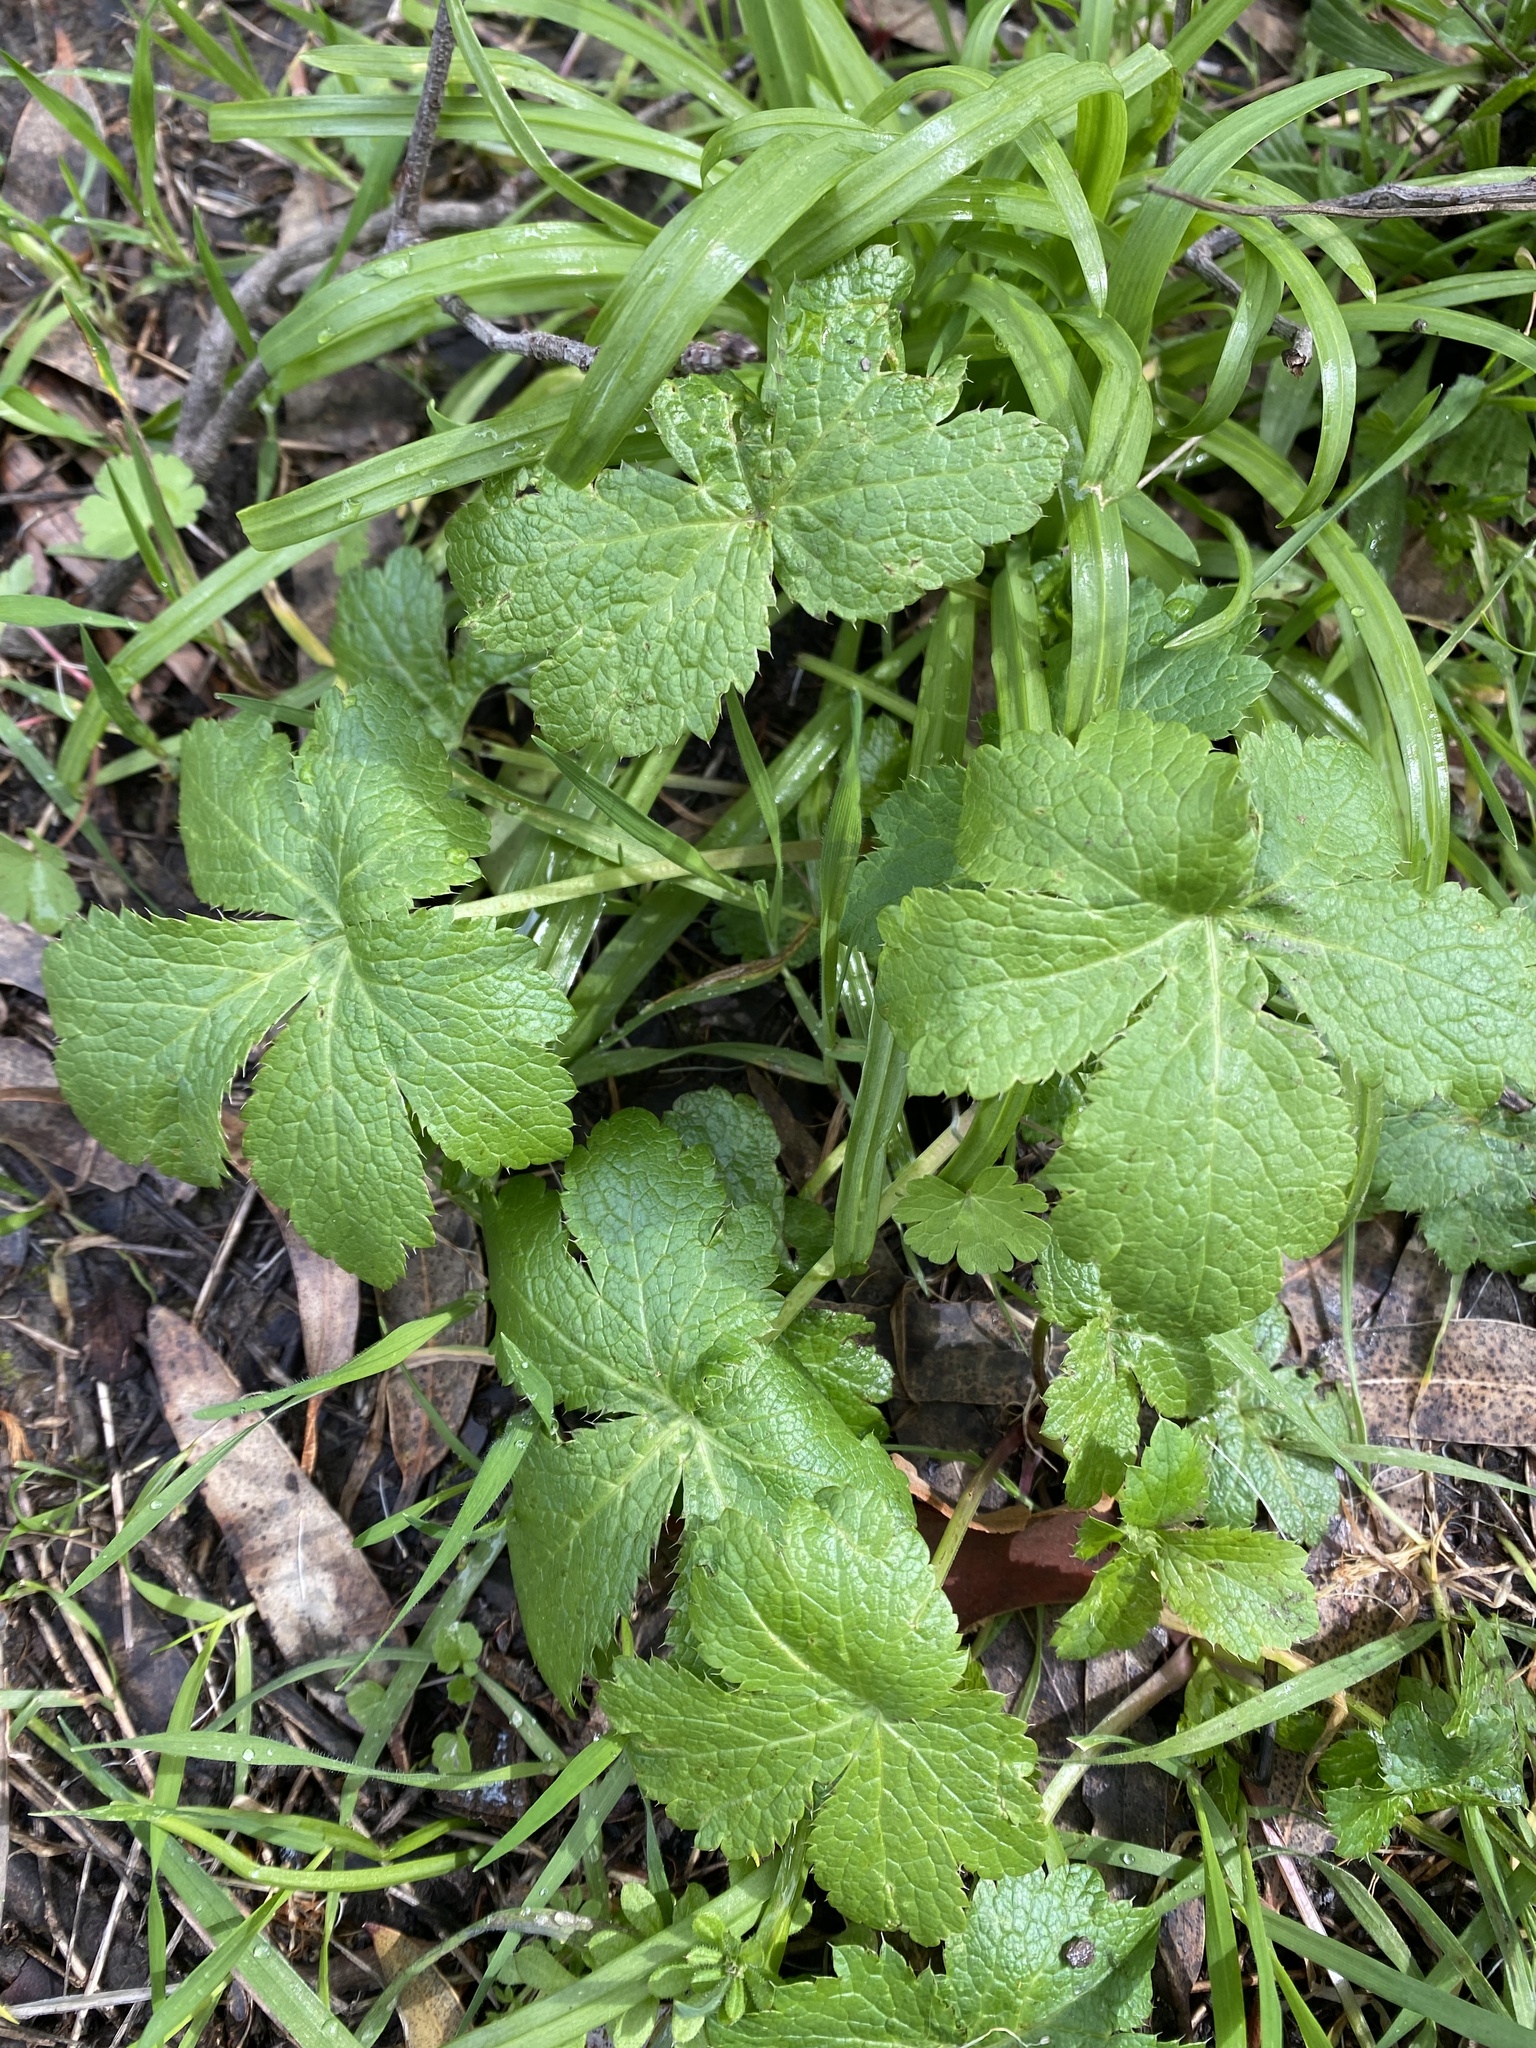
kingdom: Plantae
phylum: Tracheophyta
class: Magnoliopsida
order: Apiales
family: Apiaceae
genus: Sanicula
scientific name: Sanicula crassicaulis
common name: Western snakeroot
